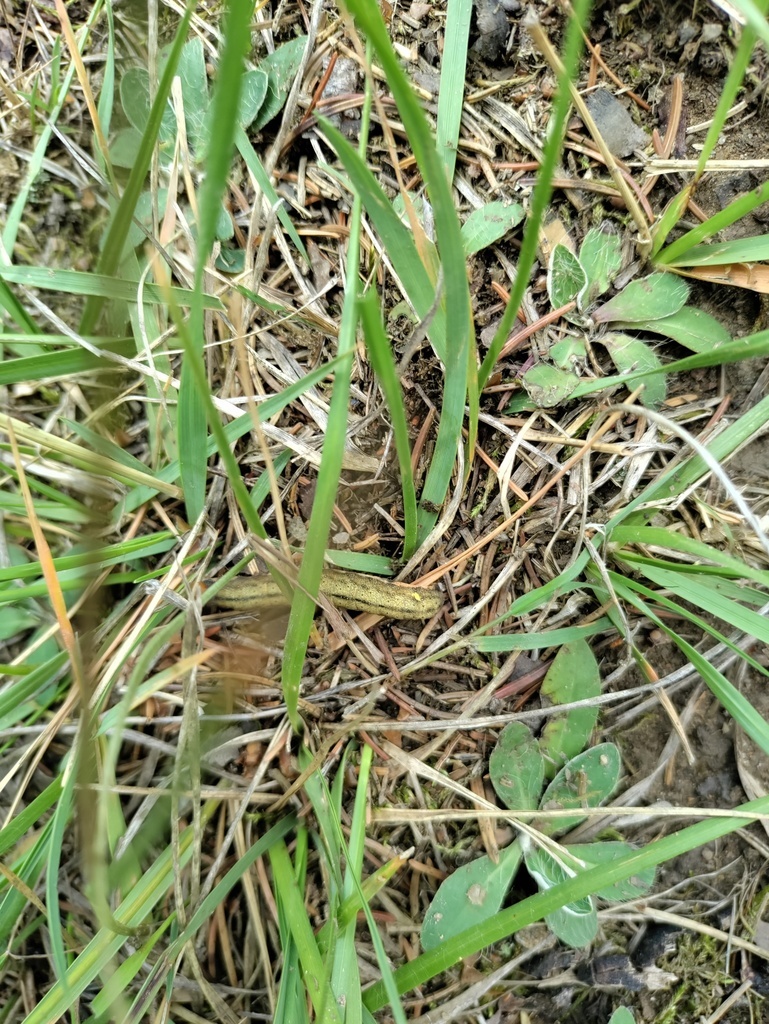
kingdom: Animalia
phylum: Arthropoda
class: Insecta
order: Lepidoptera
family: Noctuidae
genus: Trachea
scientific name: Trachea atriplicis
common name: Orache moth
